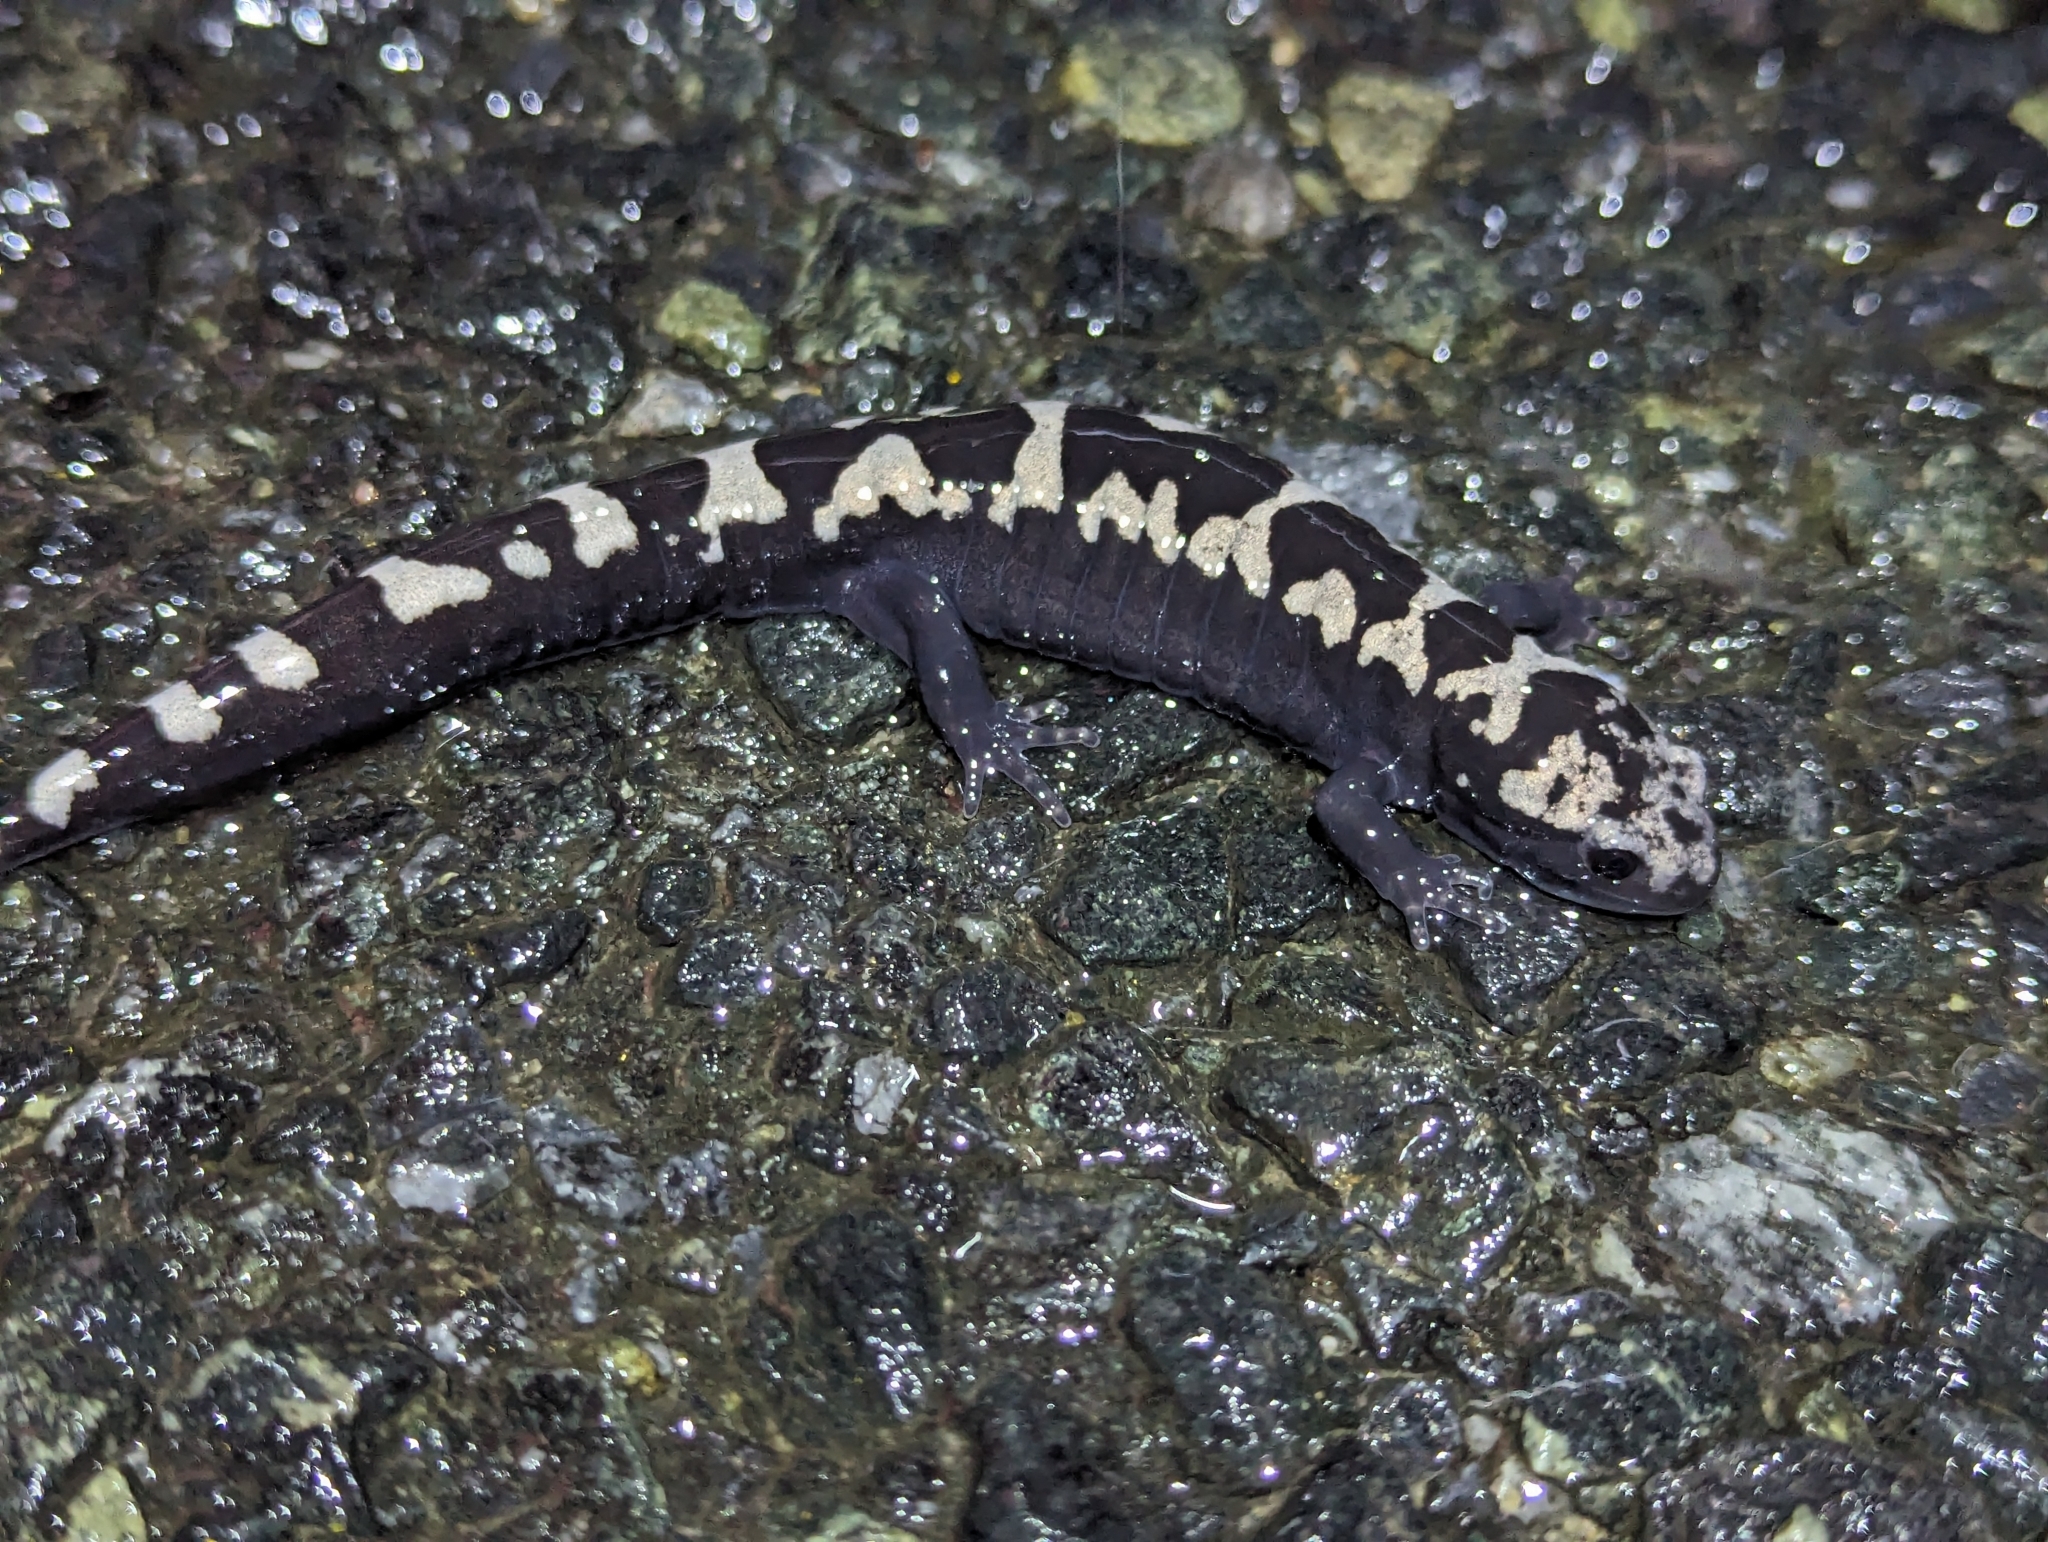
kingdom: Animalia
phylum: Chordata
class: Amphibia
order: Caudata
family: Ambystomatidae
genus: Ambystoma
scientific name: Ambystoma opacum
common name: Marbled salamander
